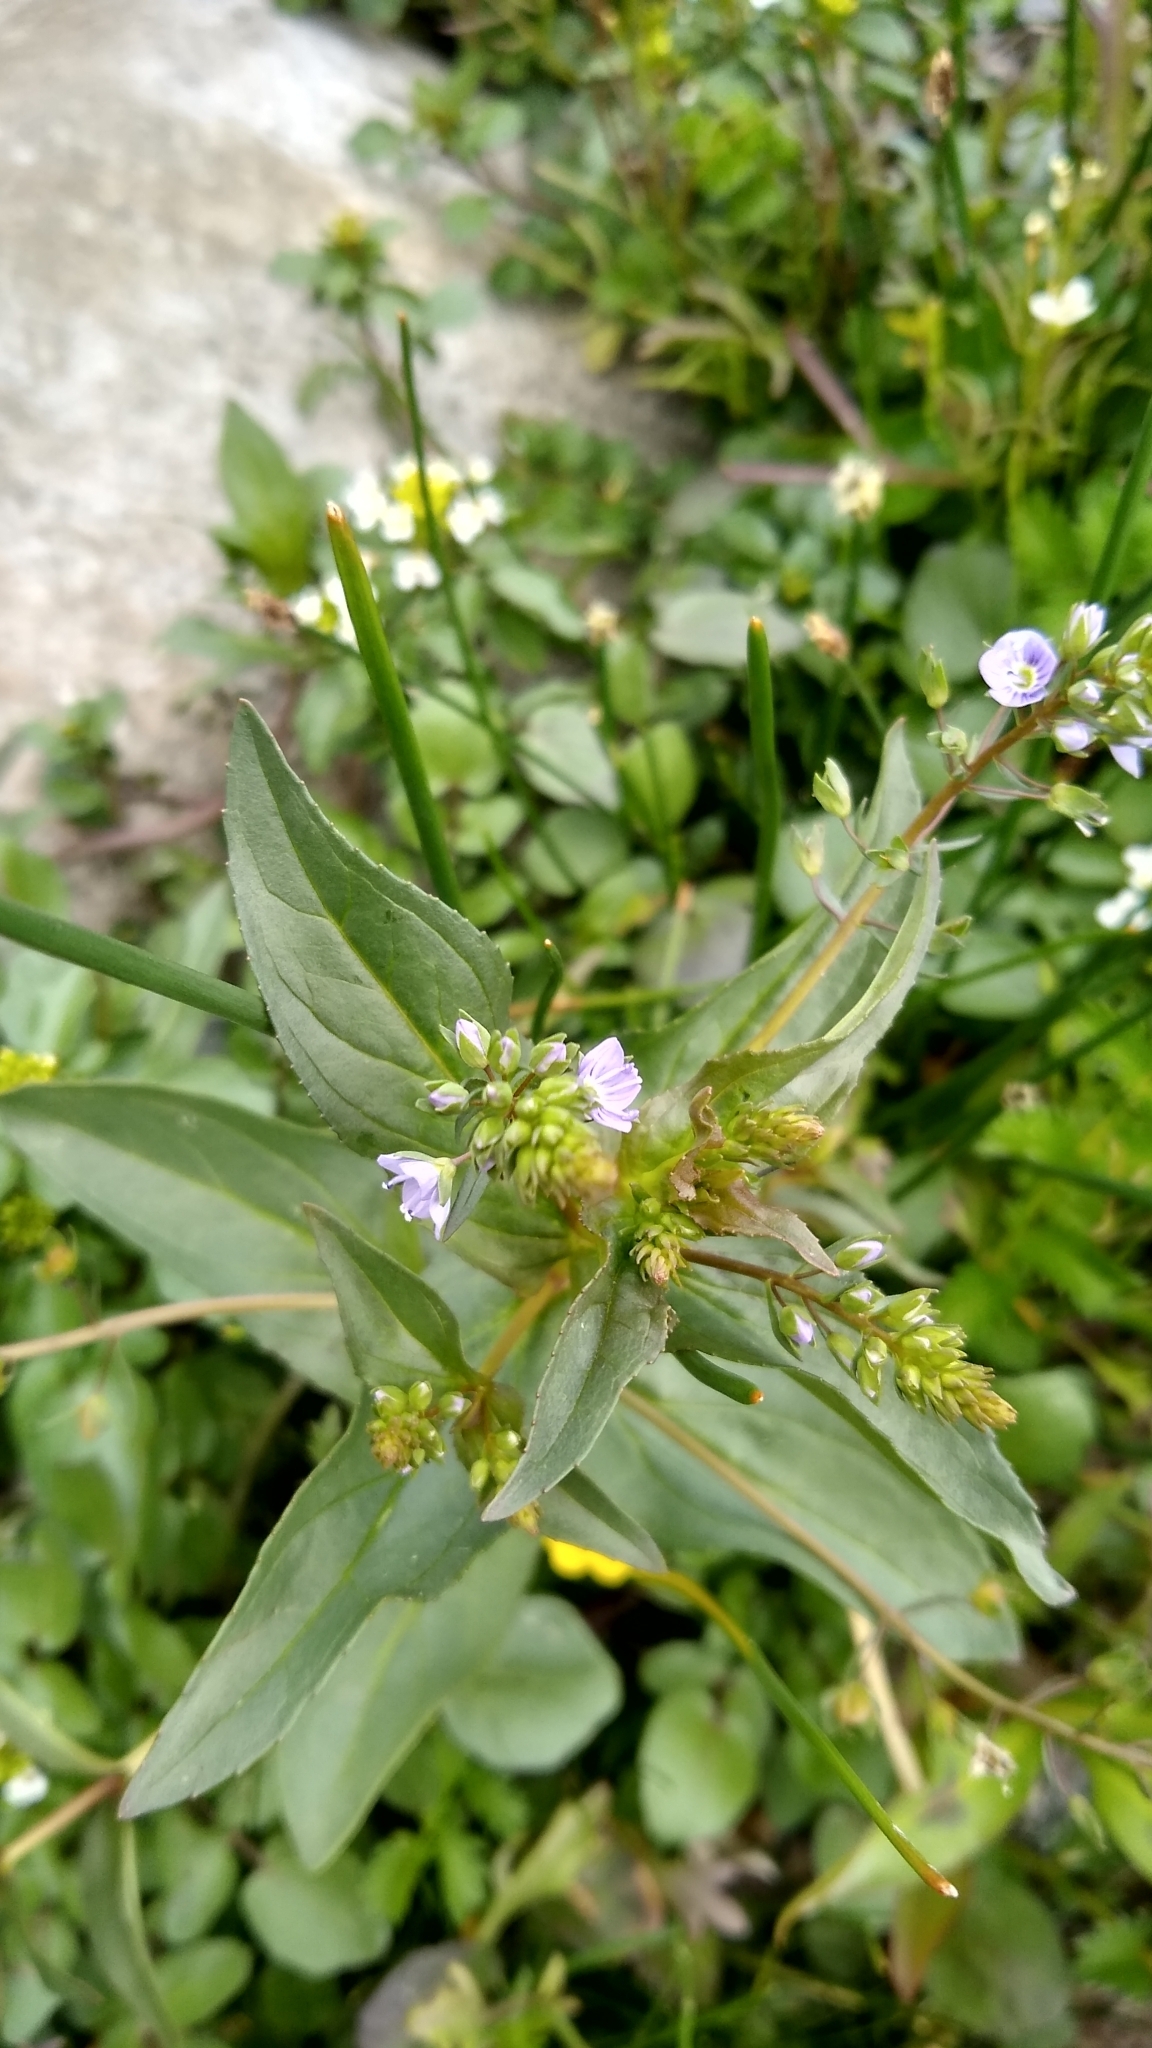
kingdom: Plantae
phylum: Tracheophyta
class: Magnoliopsida
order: Lamiales
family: Plantaginaceae
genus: Veronica
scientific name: Veronica anagallis-aquatica
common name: Water speedwell
